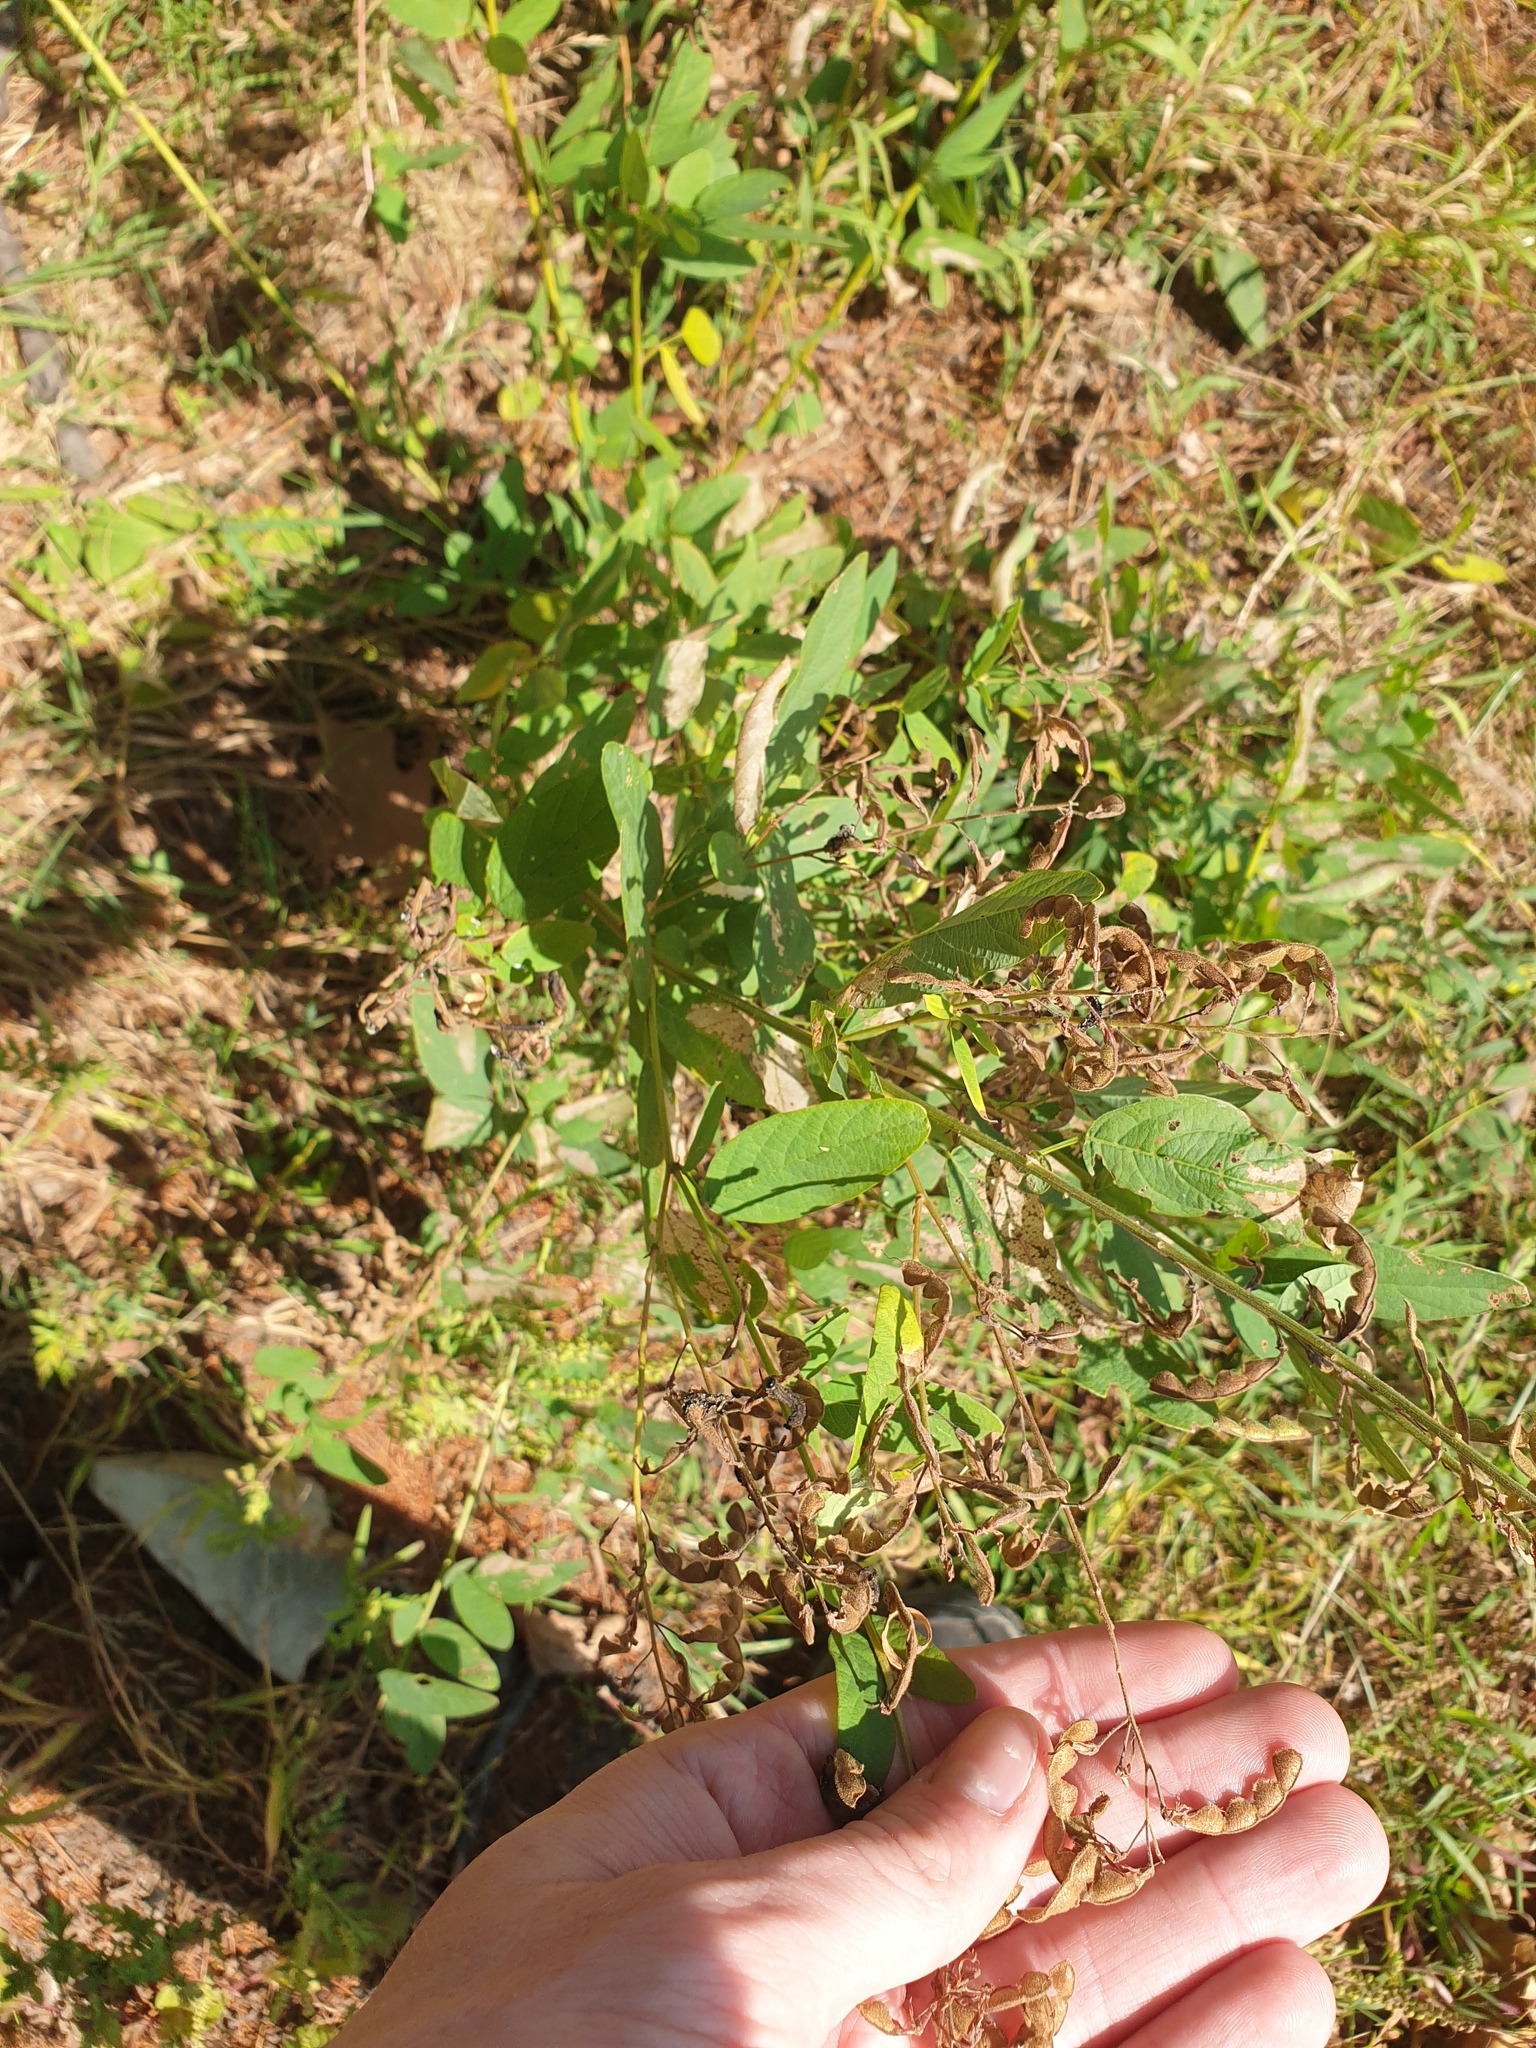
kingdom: Plantae
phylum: Tracheophyta
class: Magnoliopsida
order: Fabales
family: Fabaceae
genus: Desmodium
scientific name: Desmodium canadense
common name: Canada tick-trefoil
